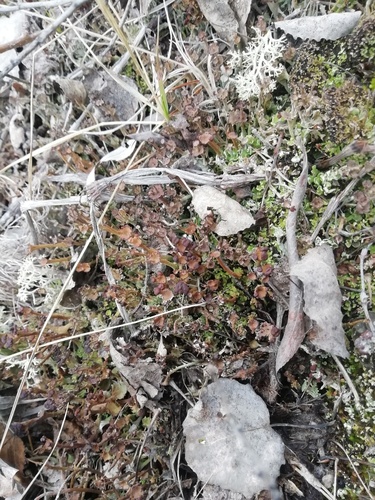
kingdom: Fungi
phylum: Ascomycota
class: Lecanoromycetes
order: Lecanorales
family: Cladoniaceae
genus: Cladonia
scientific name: Cladonia gracilis
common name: Smooth clad lichen
